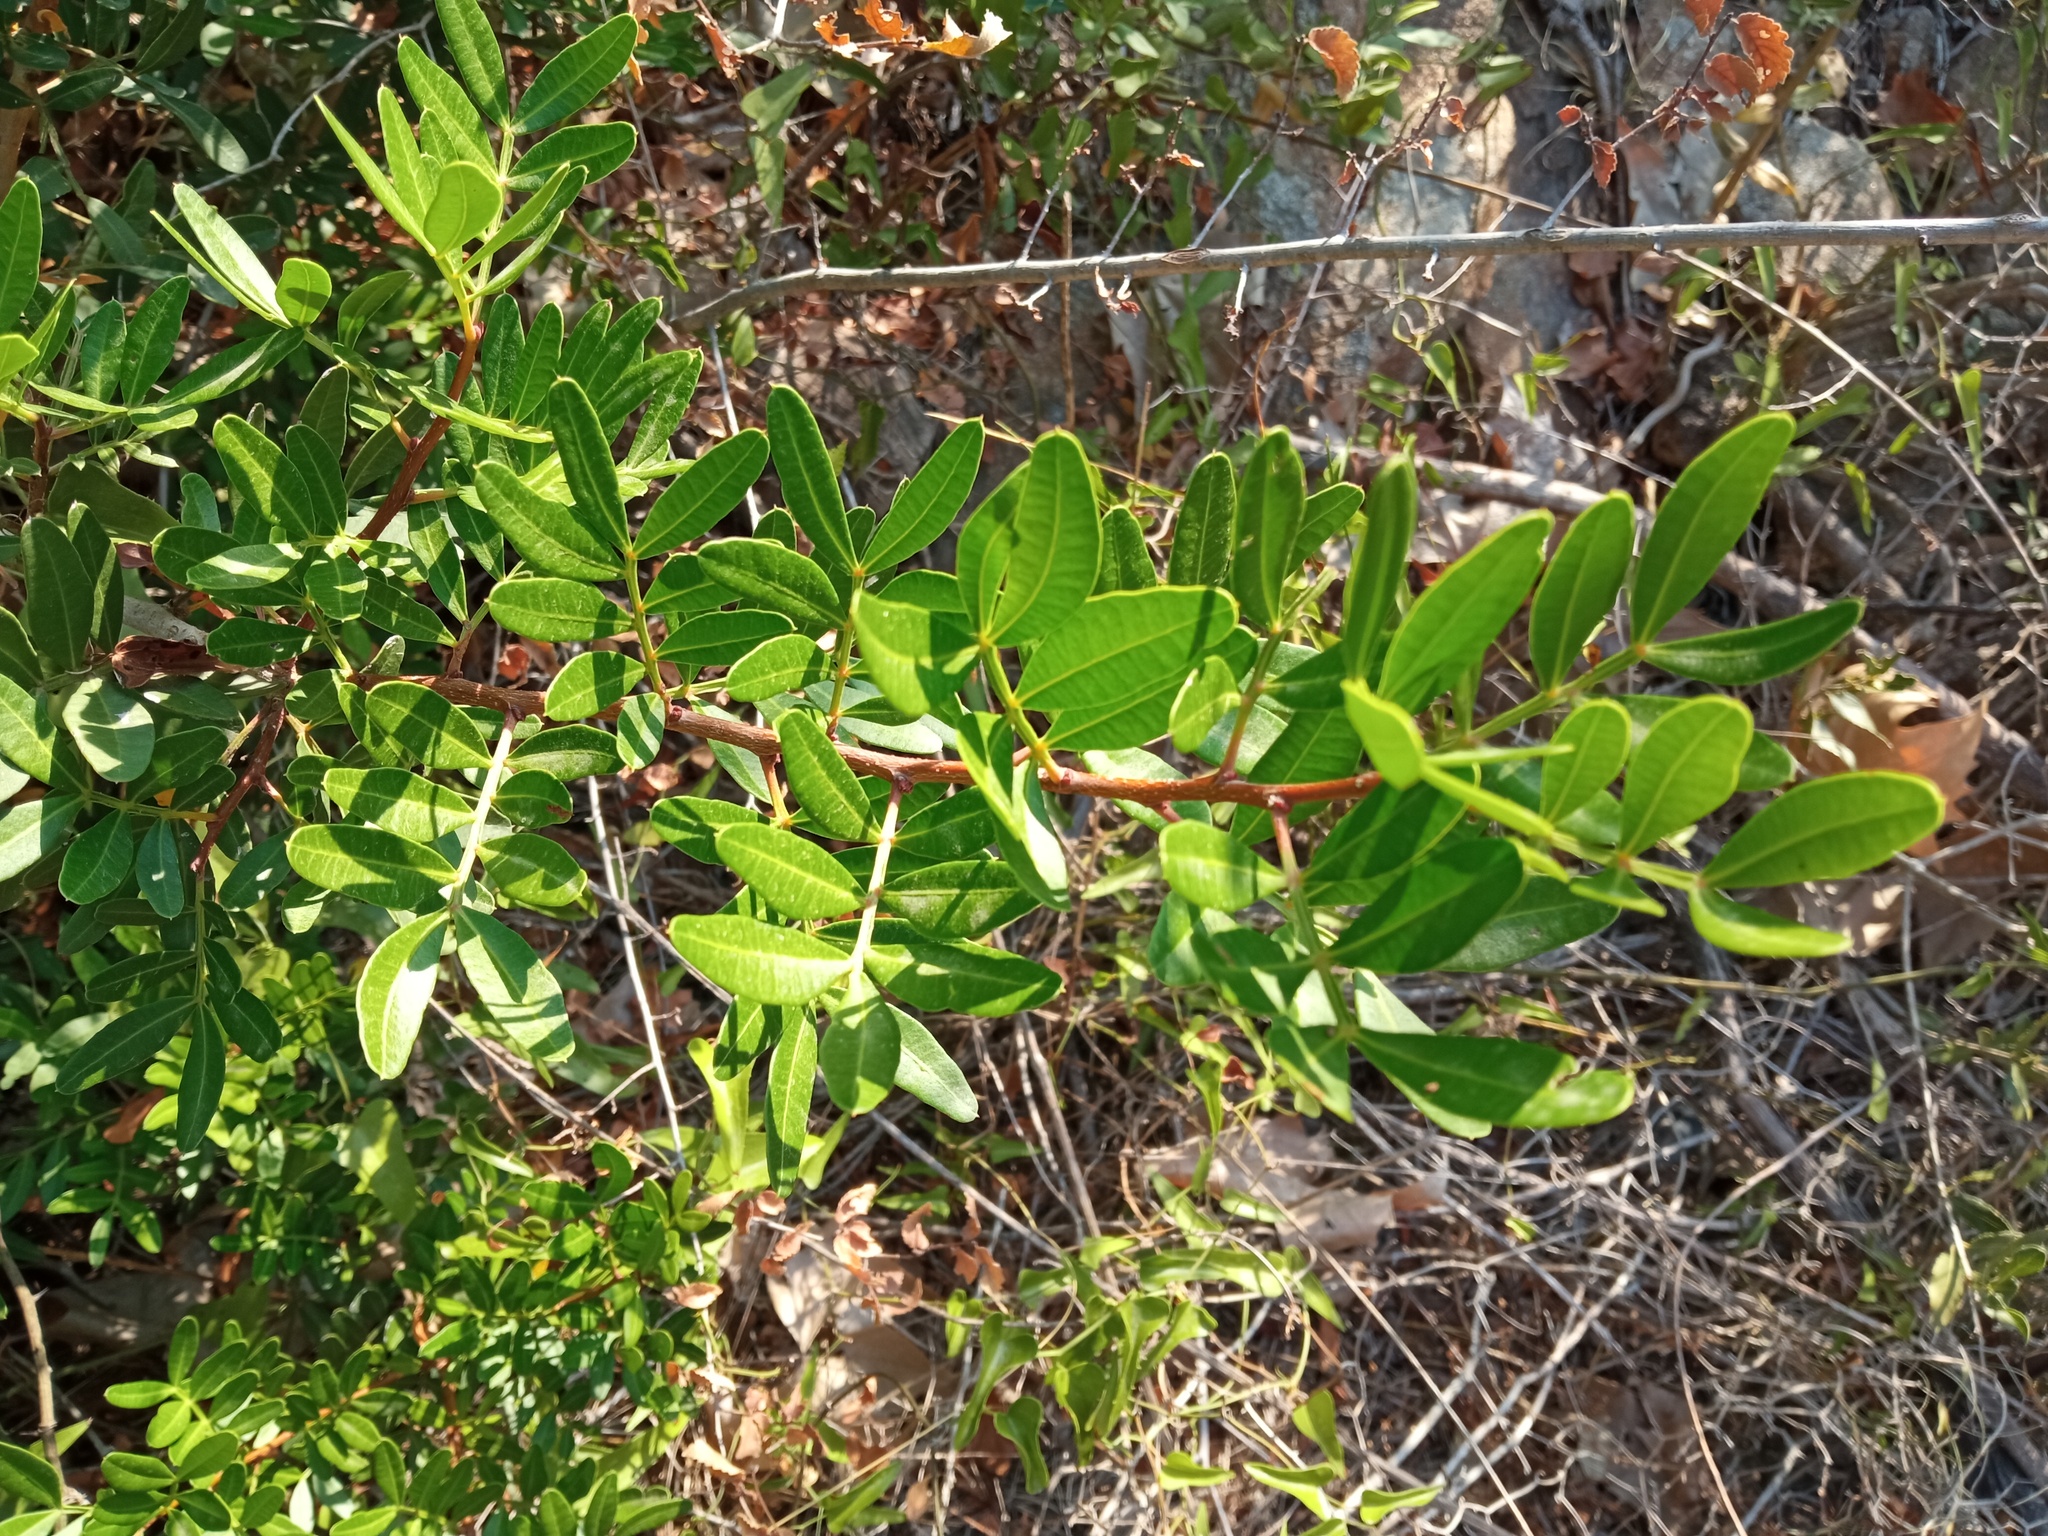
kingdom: Plantae
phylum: Tracheophyta
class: Magnoliopsida
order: Sapindales
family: Anacardiaceae
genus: Pistacia
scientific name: Pistacia lentiscus
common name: Lentisk
